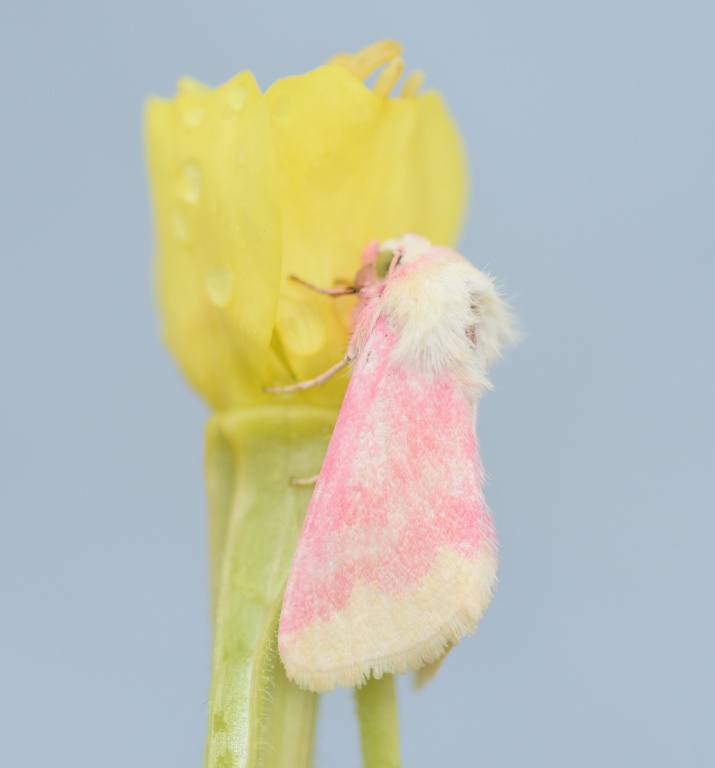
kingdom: Animalia
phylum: Arthropoda
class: Insecta
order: Lepidoptera
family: Noctuidae
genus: Schinia
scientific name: Schinia florida
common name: Primrose moth
